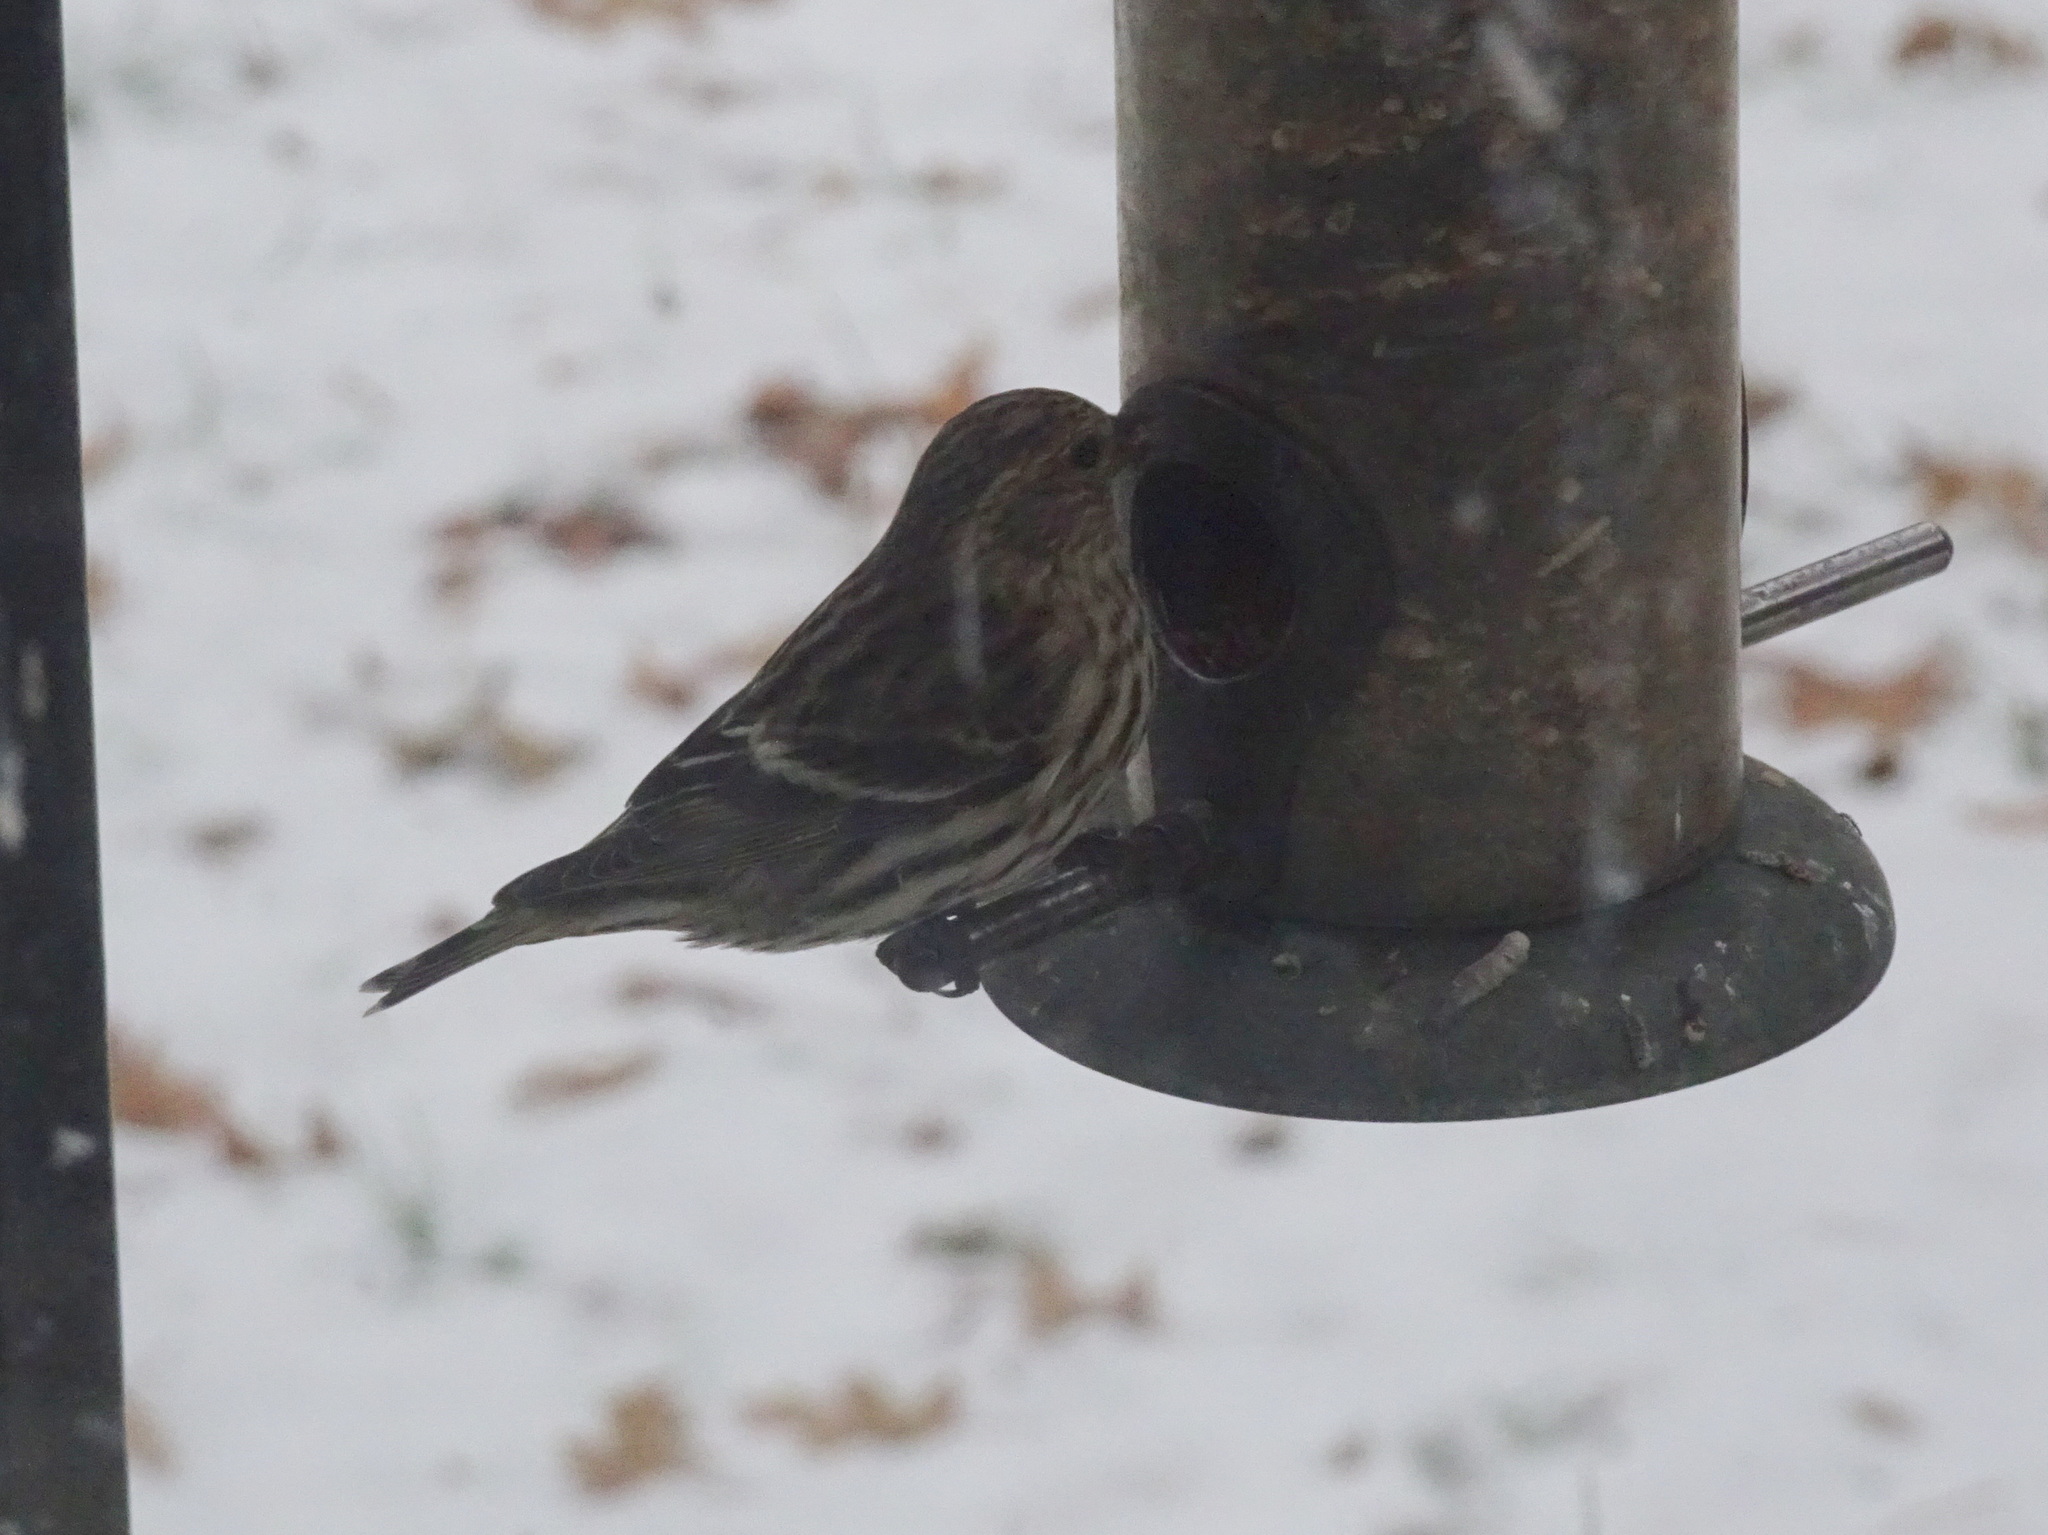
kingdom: Animalia
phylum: Chordata
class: Aves
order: Passeriformes
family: Fringillidae
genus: Spinus
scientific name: Spinus pinus
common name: Pine siskin
